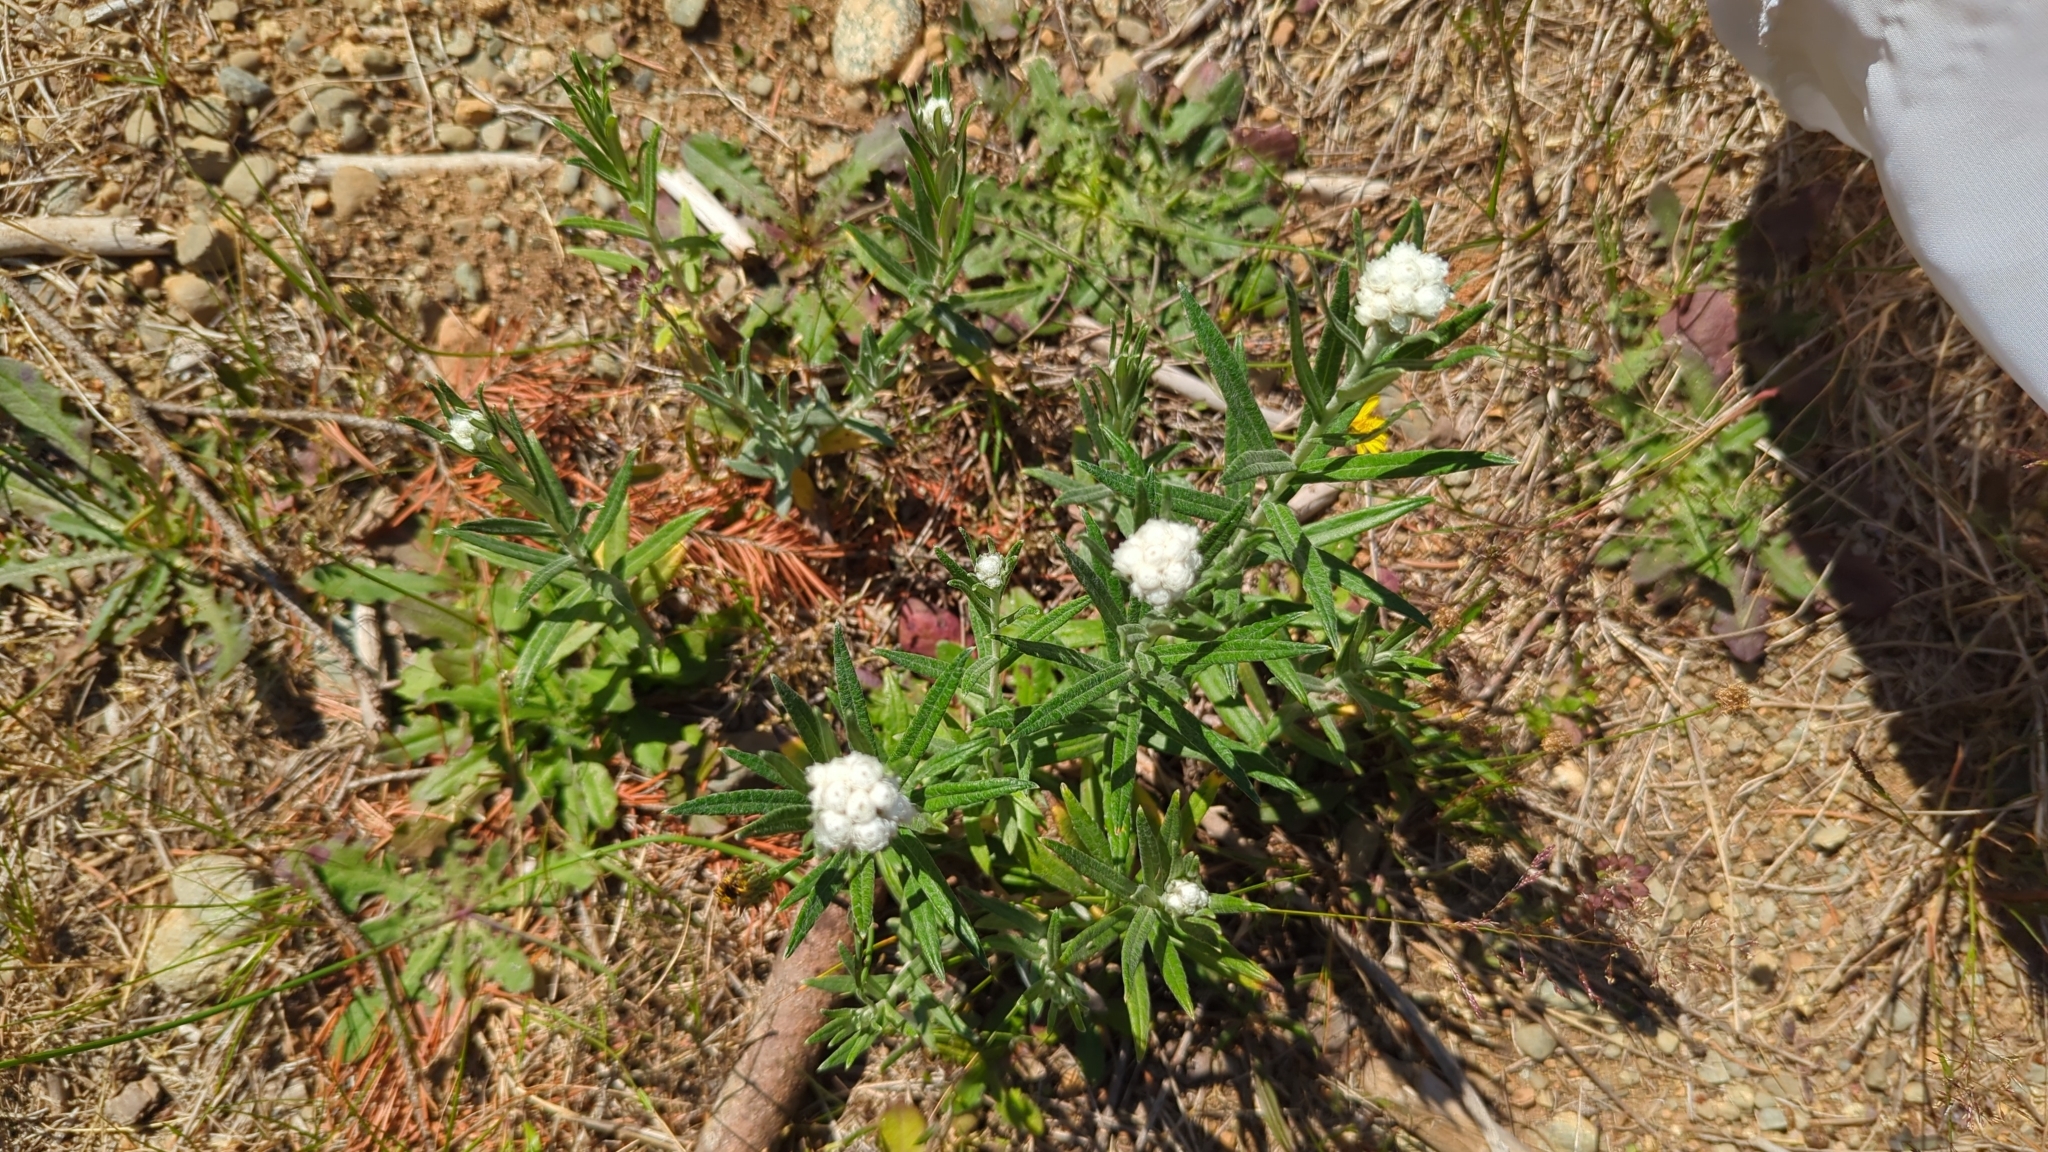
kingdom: Plantae
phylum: Tracheophyta
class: Magnoliopsida
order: Asterales
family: Asteraceae
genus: Anaphalis
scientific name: Anaphalis margaritacea
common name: Pearly everlasting
